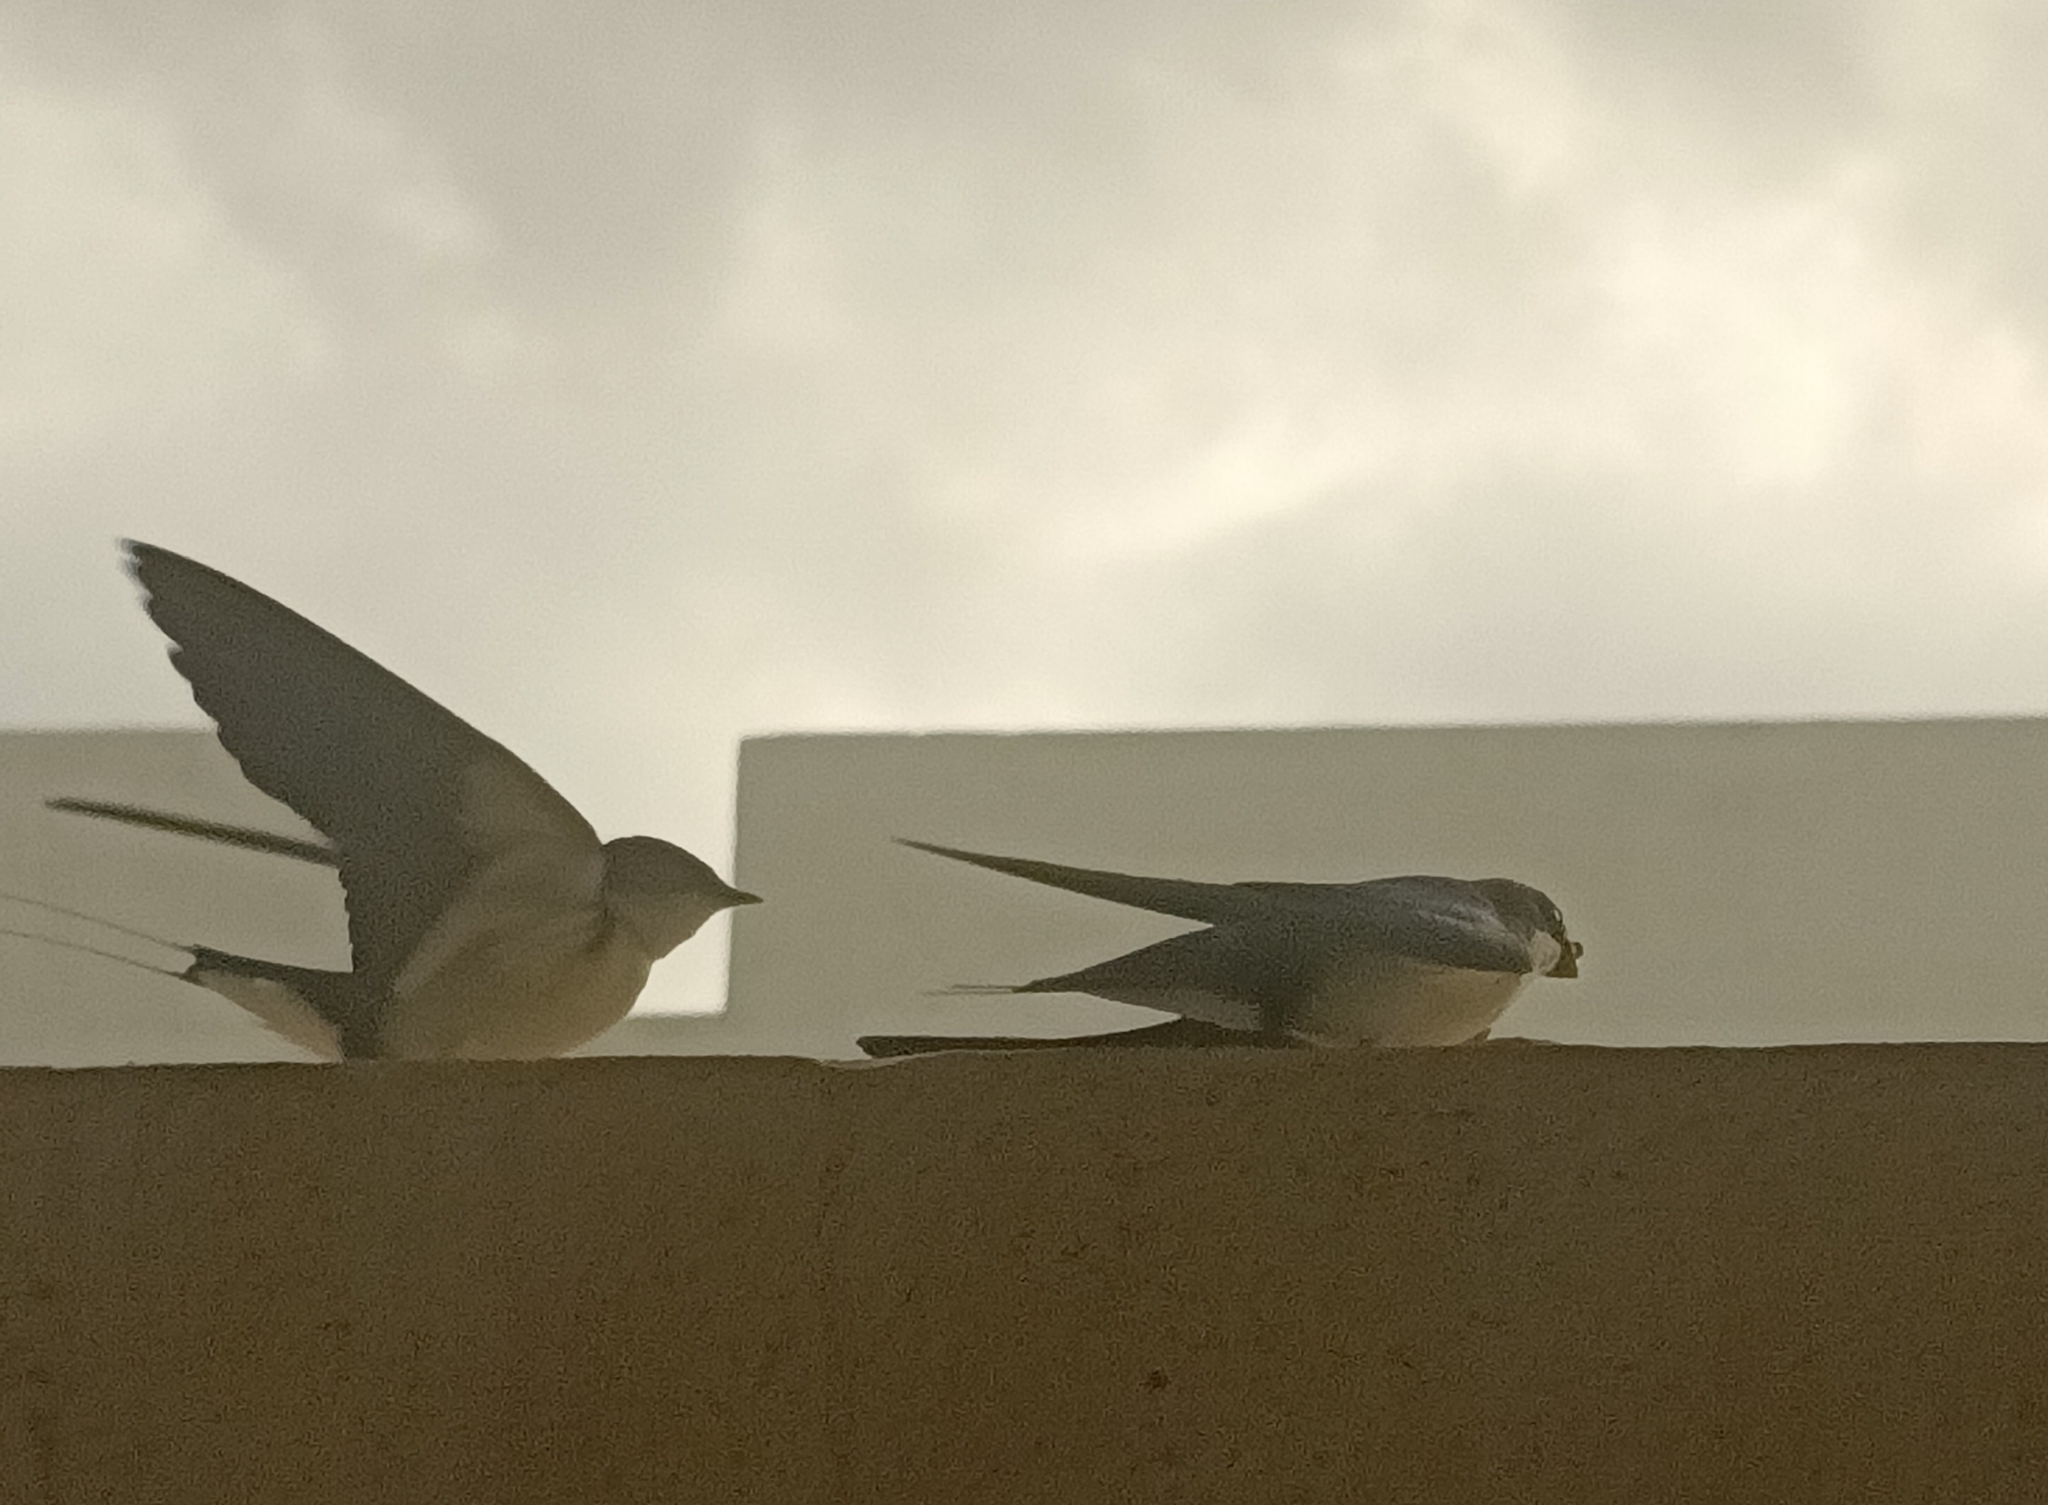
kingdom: Animalia
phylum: Chordata
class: Aves
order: Passeriformes
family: Hirundinidae
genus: Hirundo
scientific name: Hirundo smithii
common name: Wire-tailed swallow
